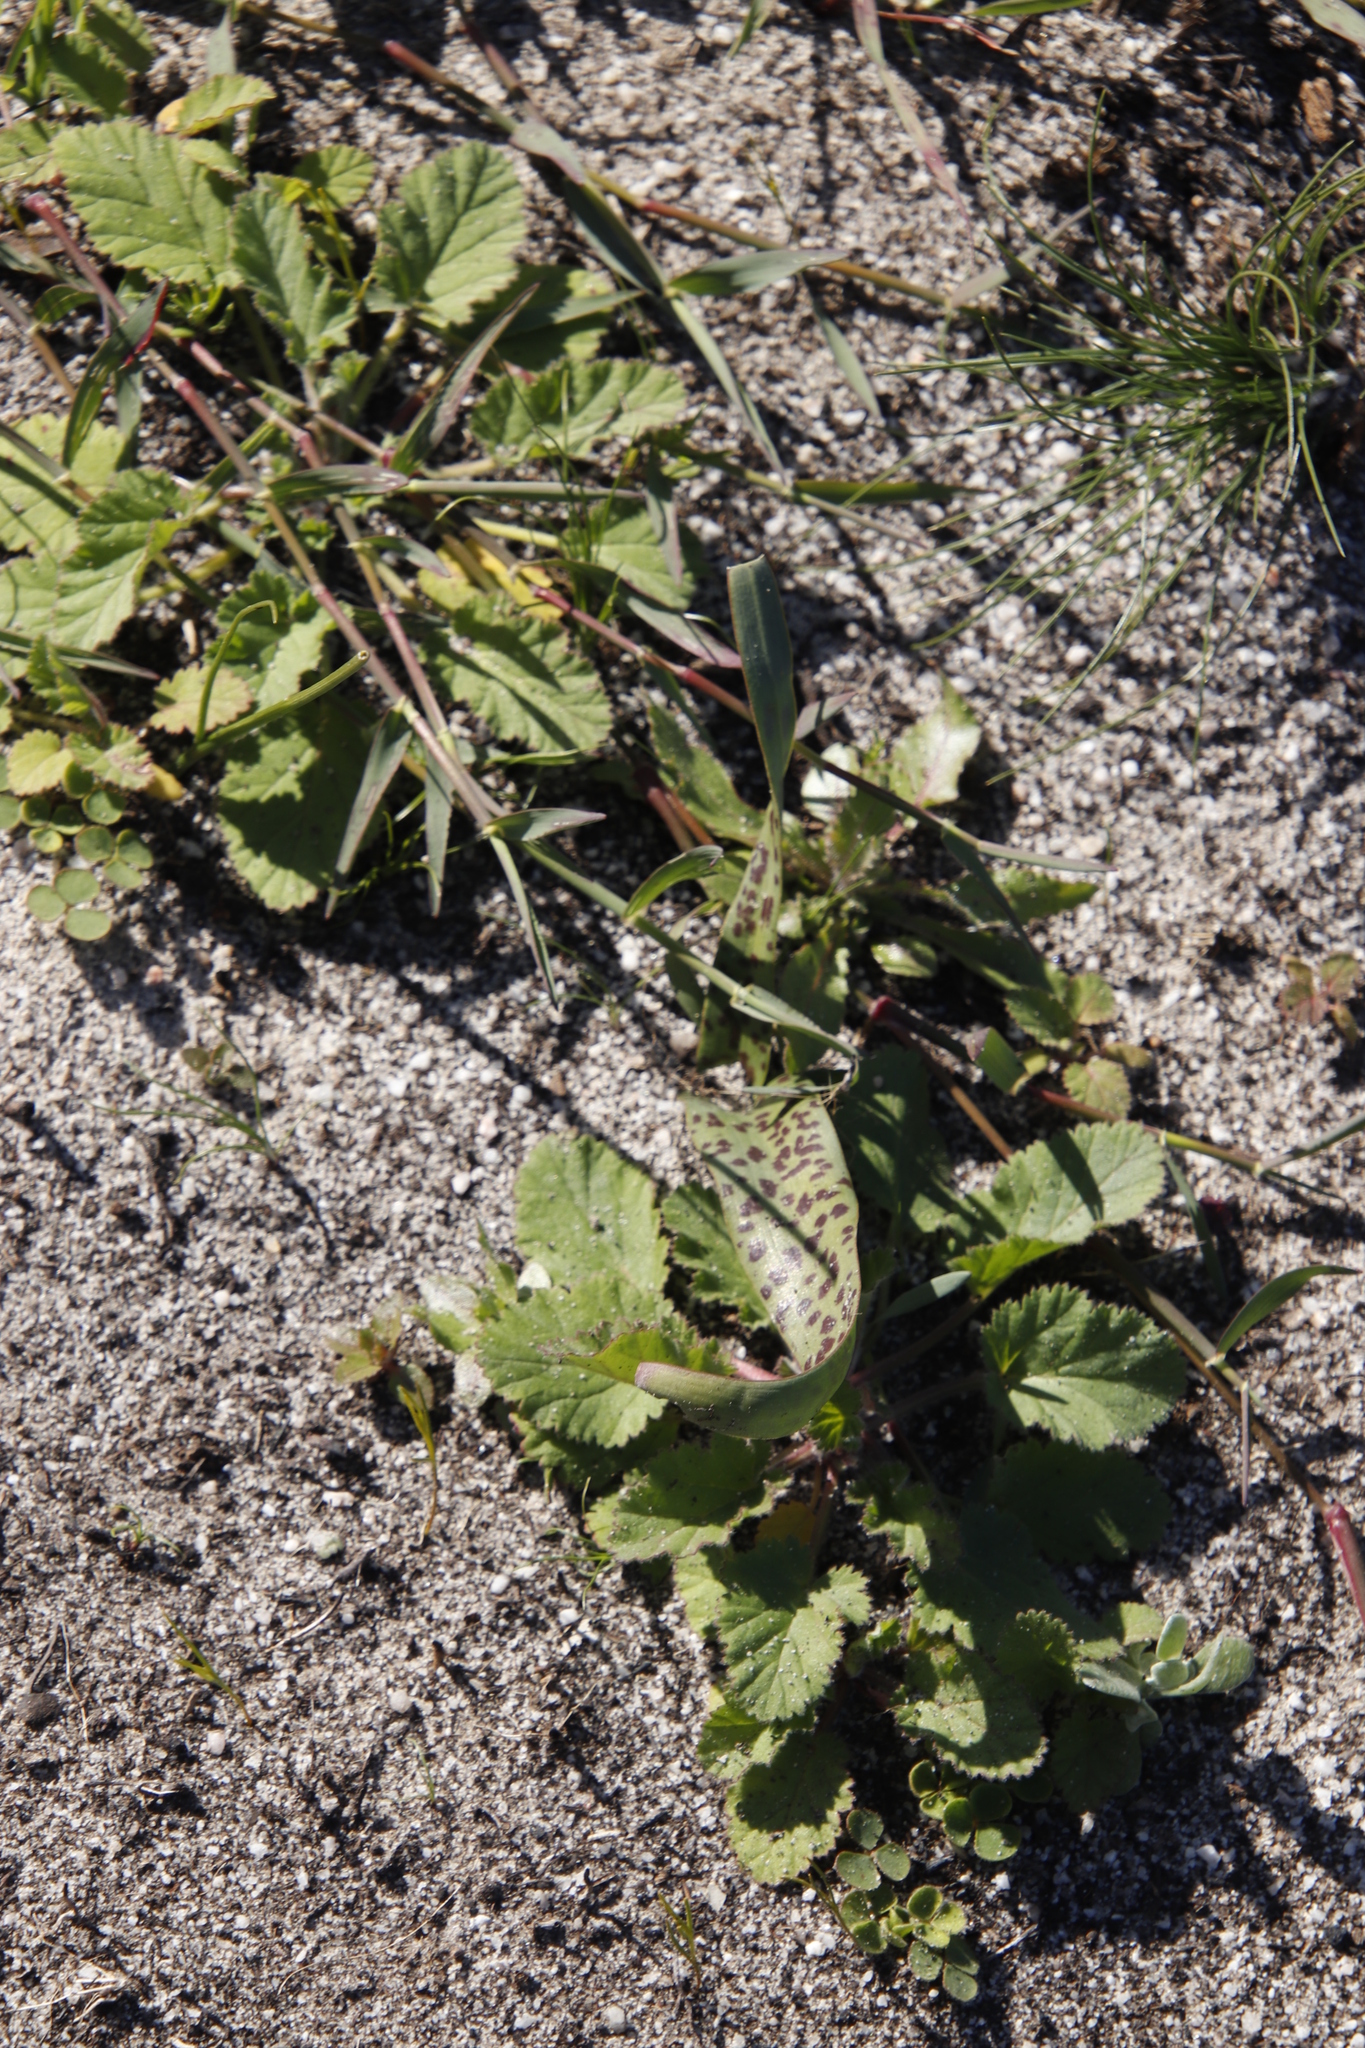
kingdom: Plantae
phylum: Tracheophyta
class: Magnoliopsida
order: Geraniales
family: Geraniaceae
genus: Pelargonium
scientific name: Pelargonium althaeoides
